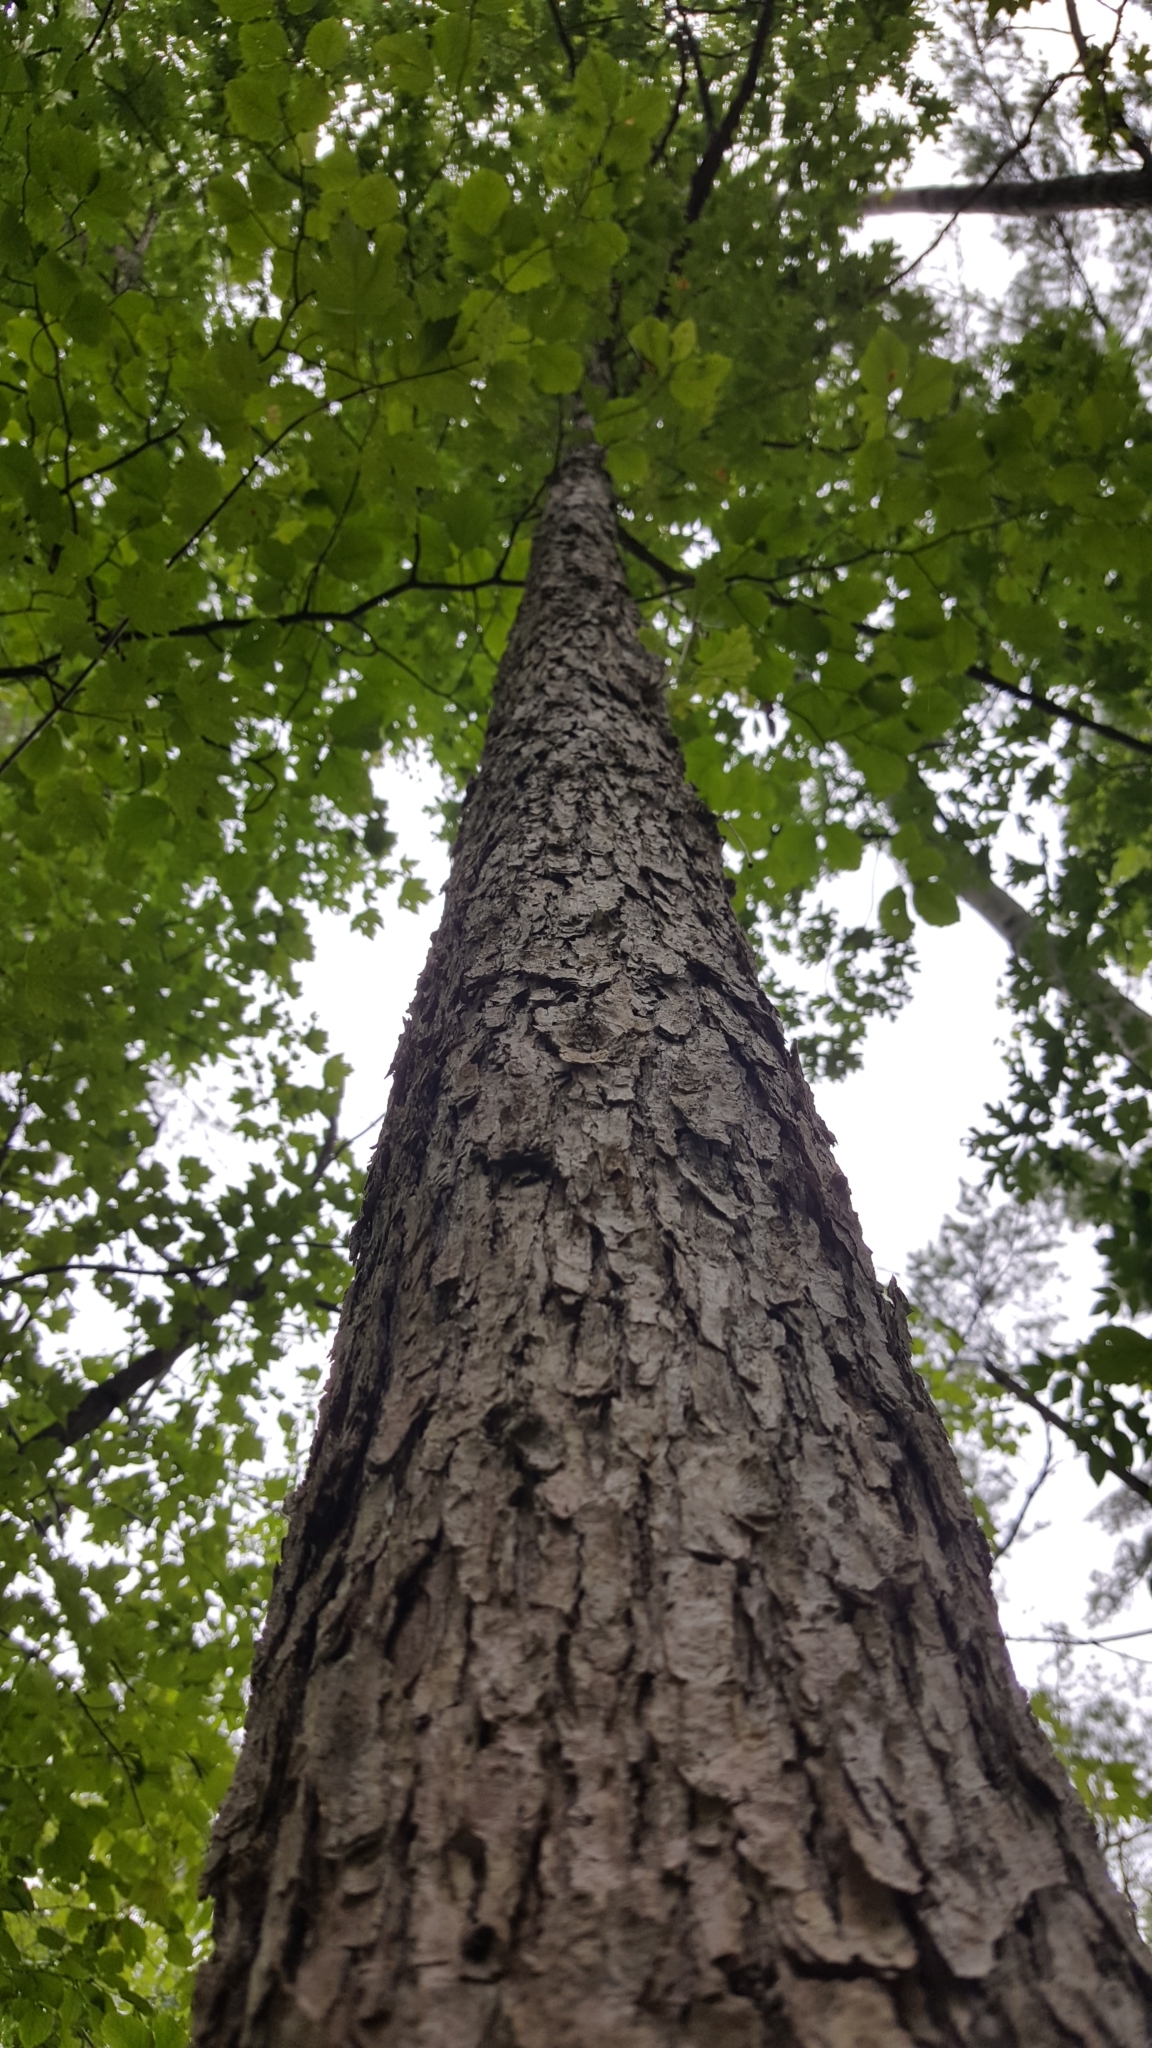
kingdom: Plantae
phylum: Tracheophyta
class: Magnoliopsida
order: Fagales
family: Fagaceae
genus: Quercus
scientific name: Quercus alba
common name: White oak
